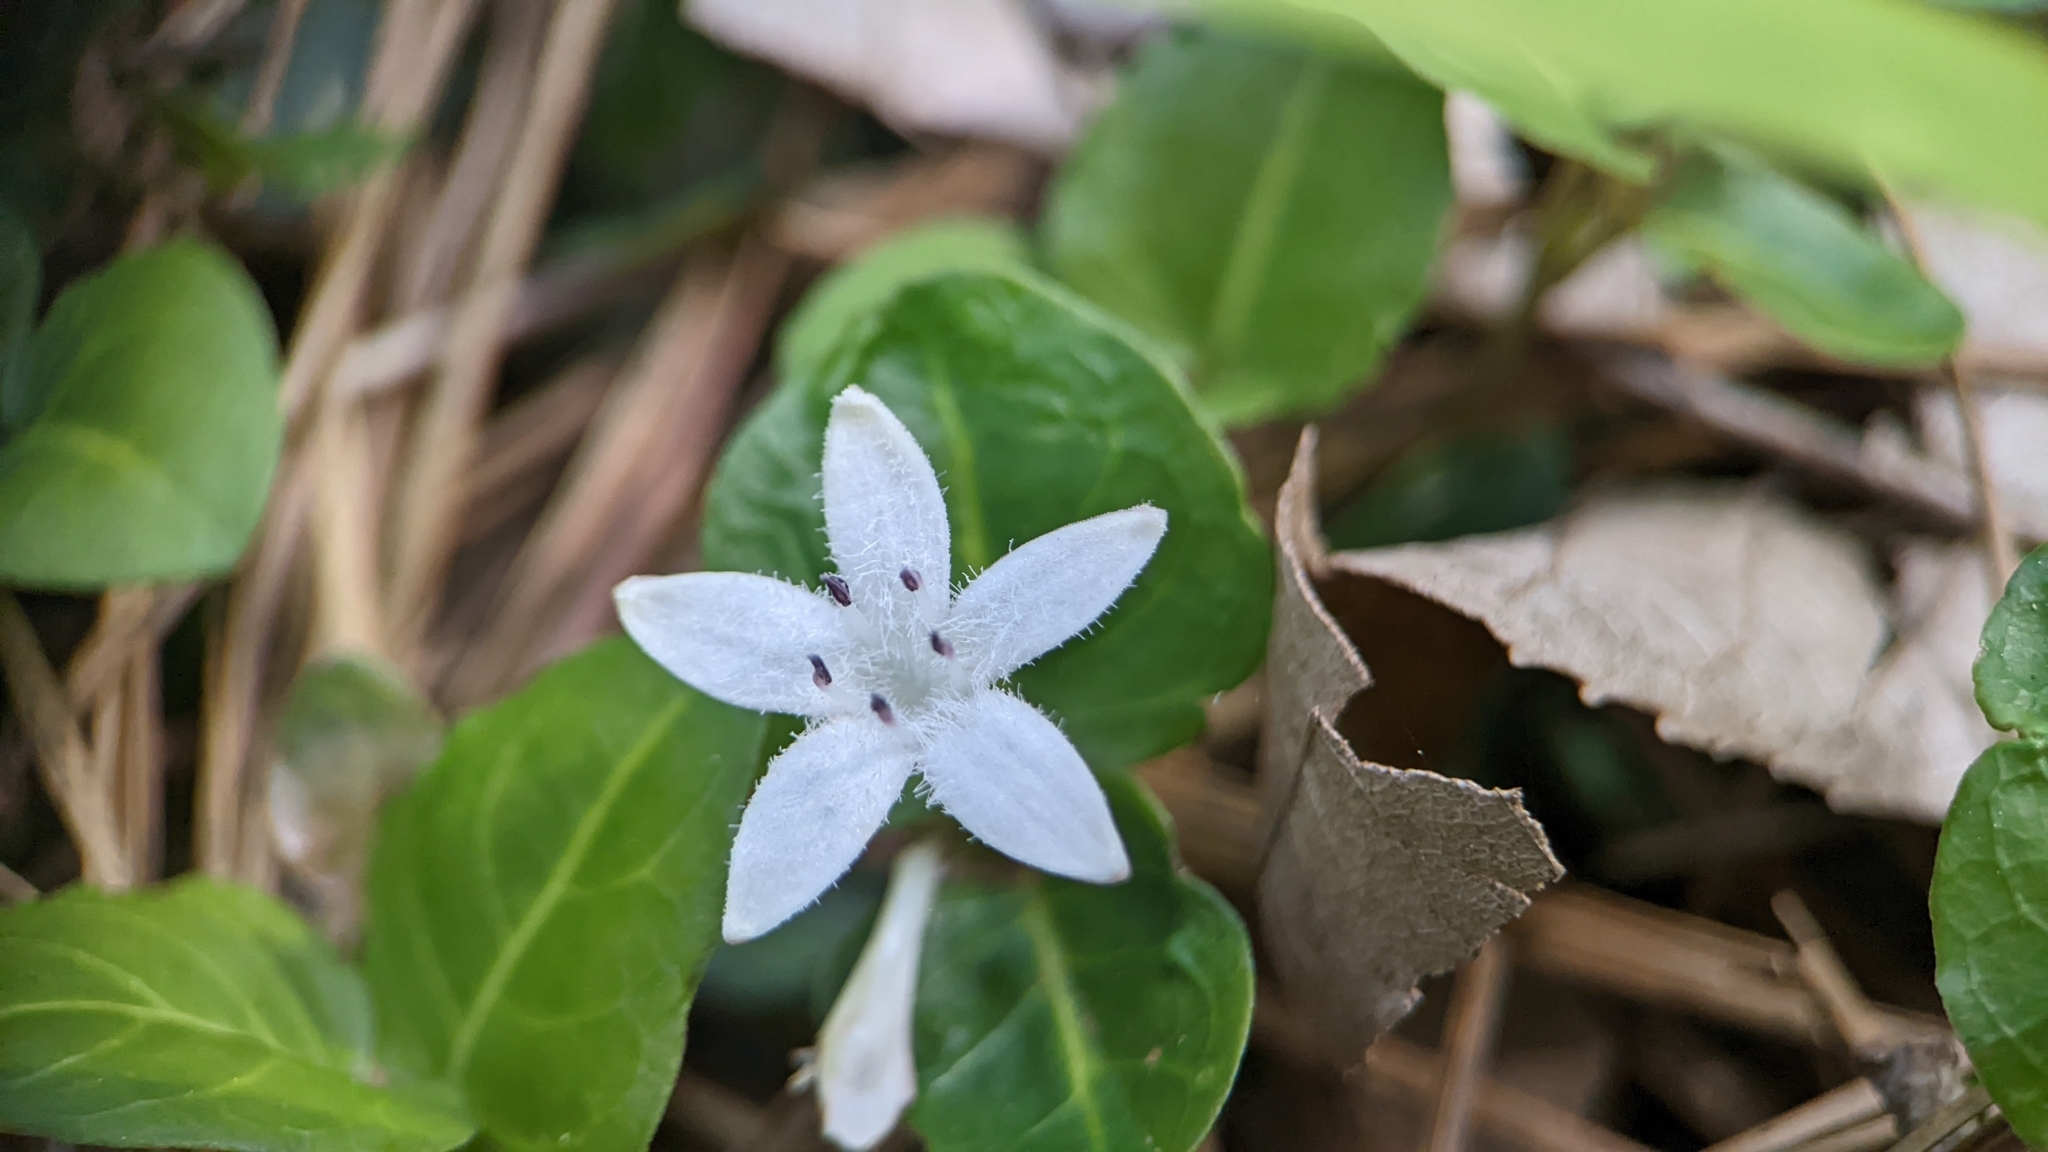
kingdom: Plantae
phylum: Tracheophyta
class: Magnoliopsida
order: Gentianales
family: Rubiaceae
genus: Mitchella
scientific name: Mitchella repens
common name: Partridge-berry
